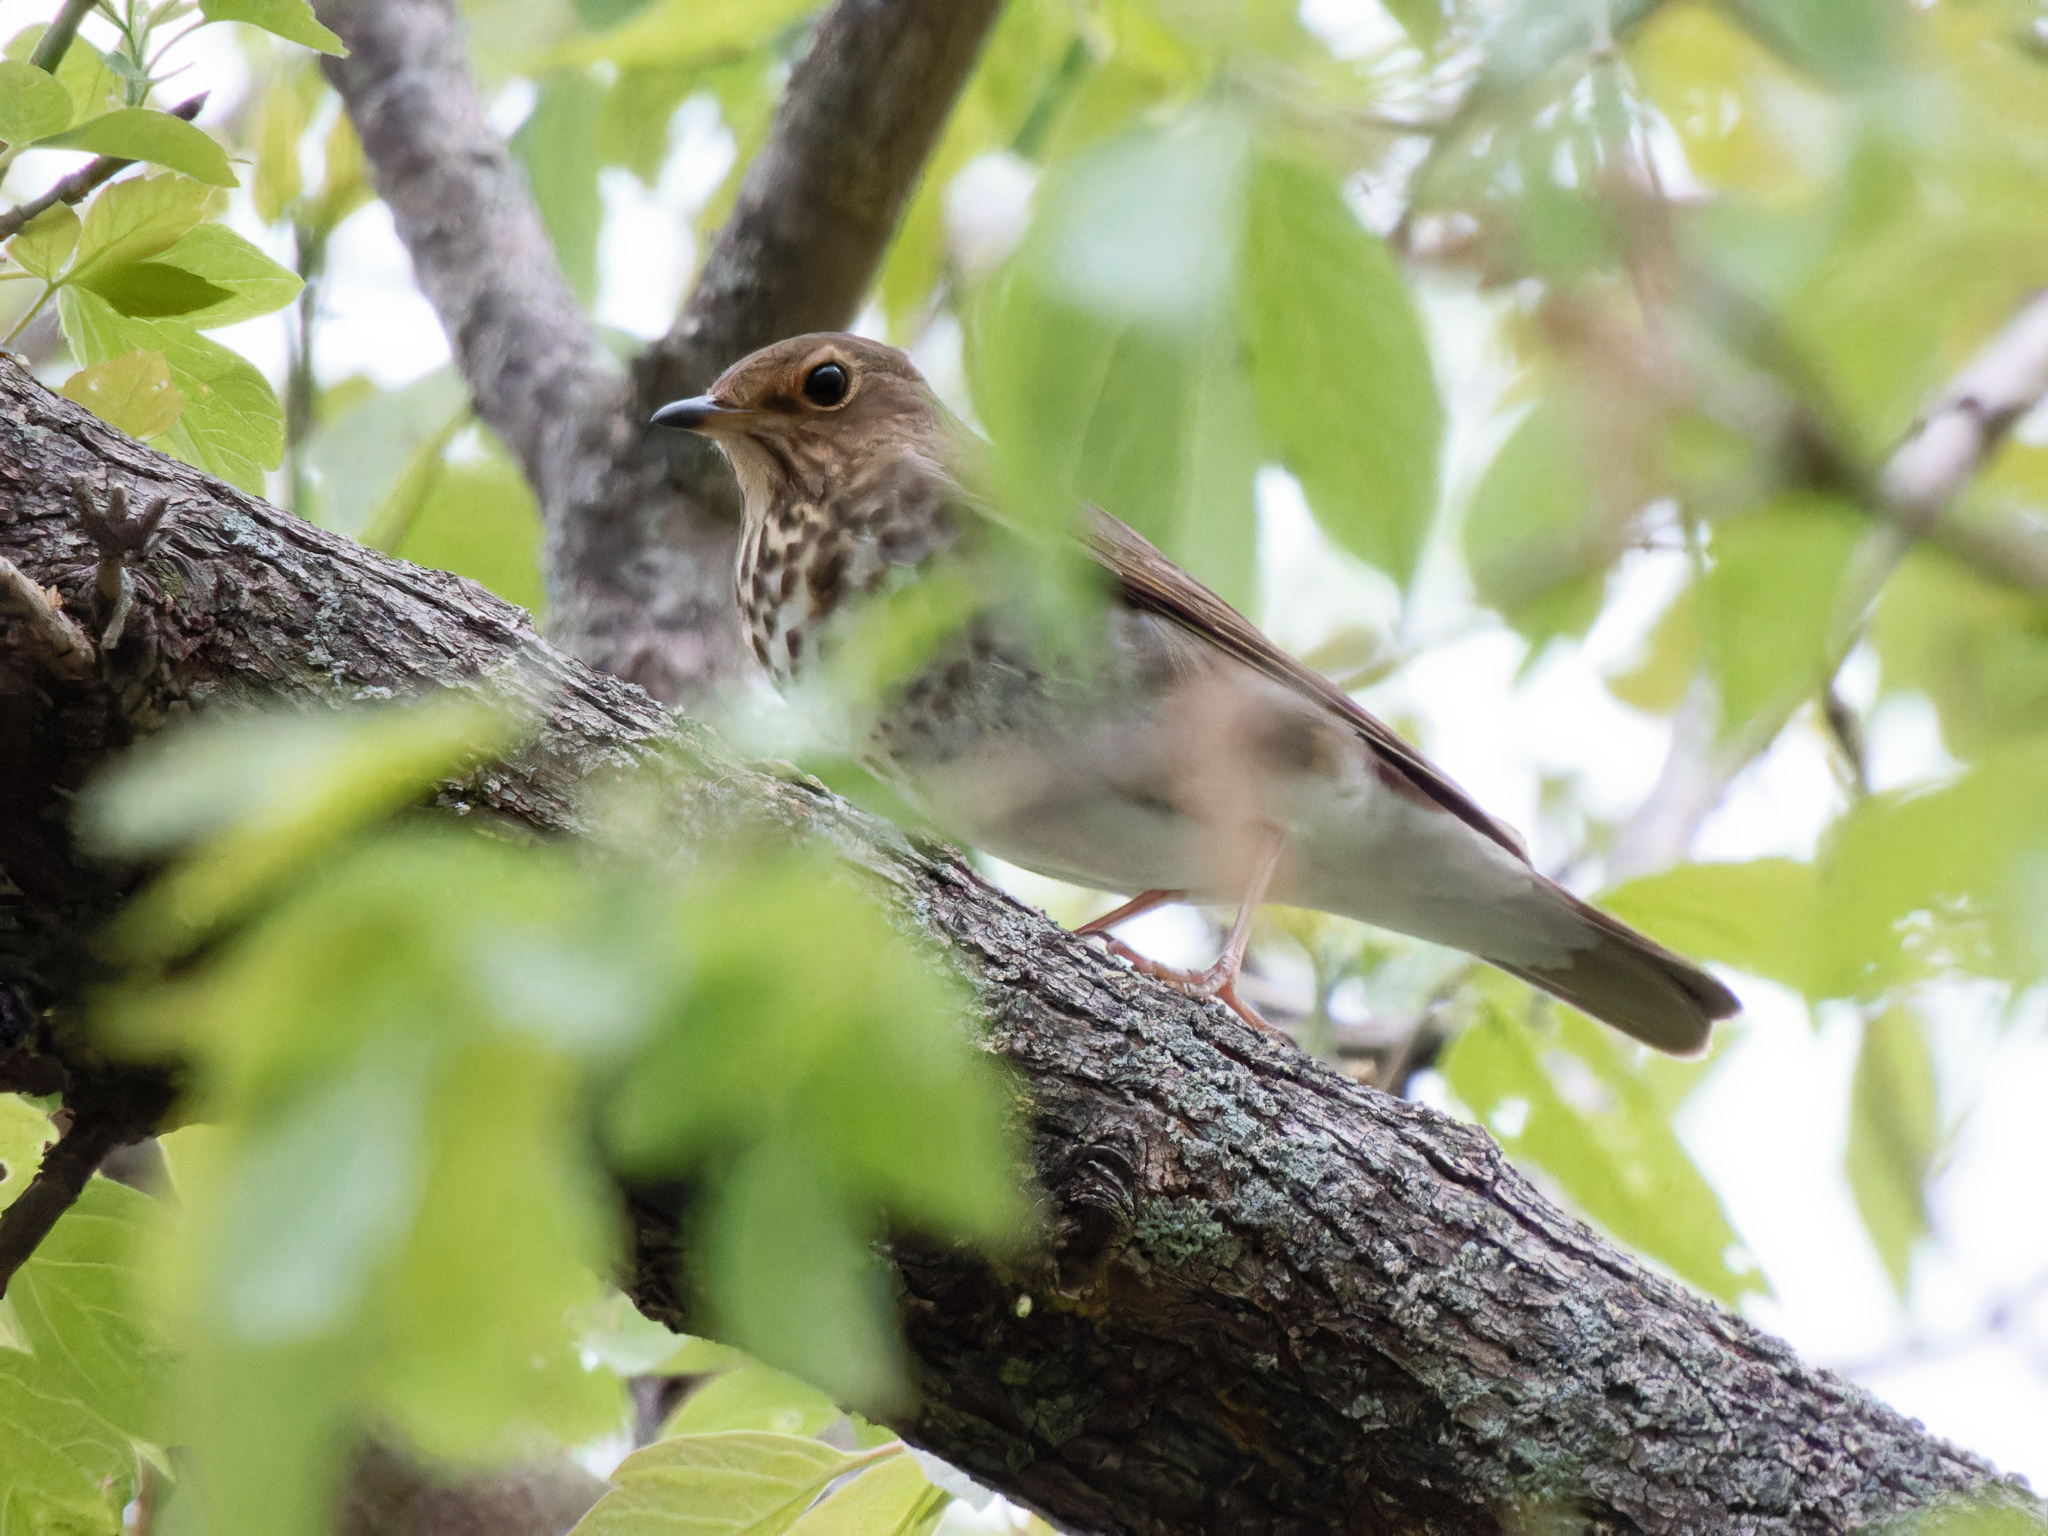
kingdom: Animalia
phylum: Chordata
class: Aves
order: Passeriformes
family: Turdidae
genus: Catharus
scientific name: Catharus ustulatus
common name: Swainson's thrush
